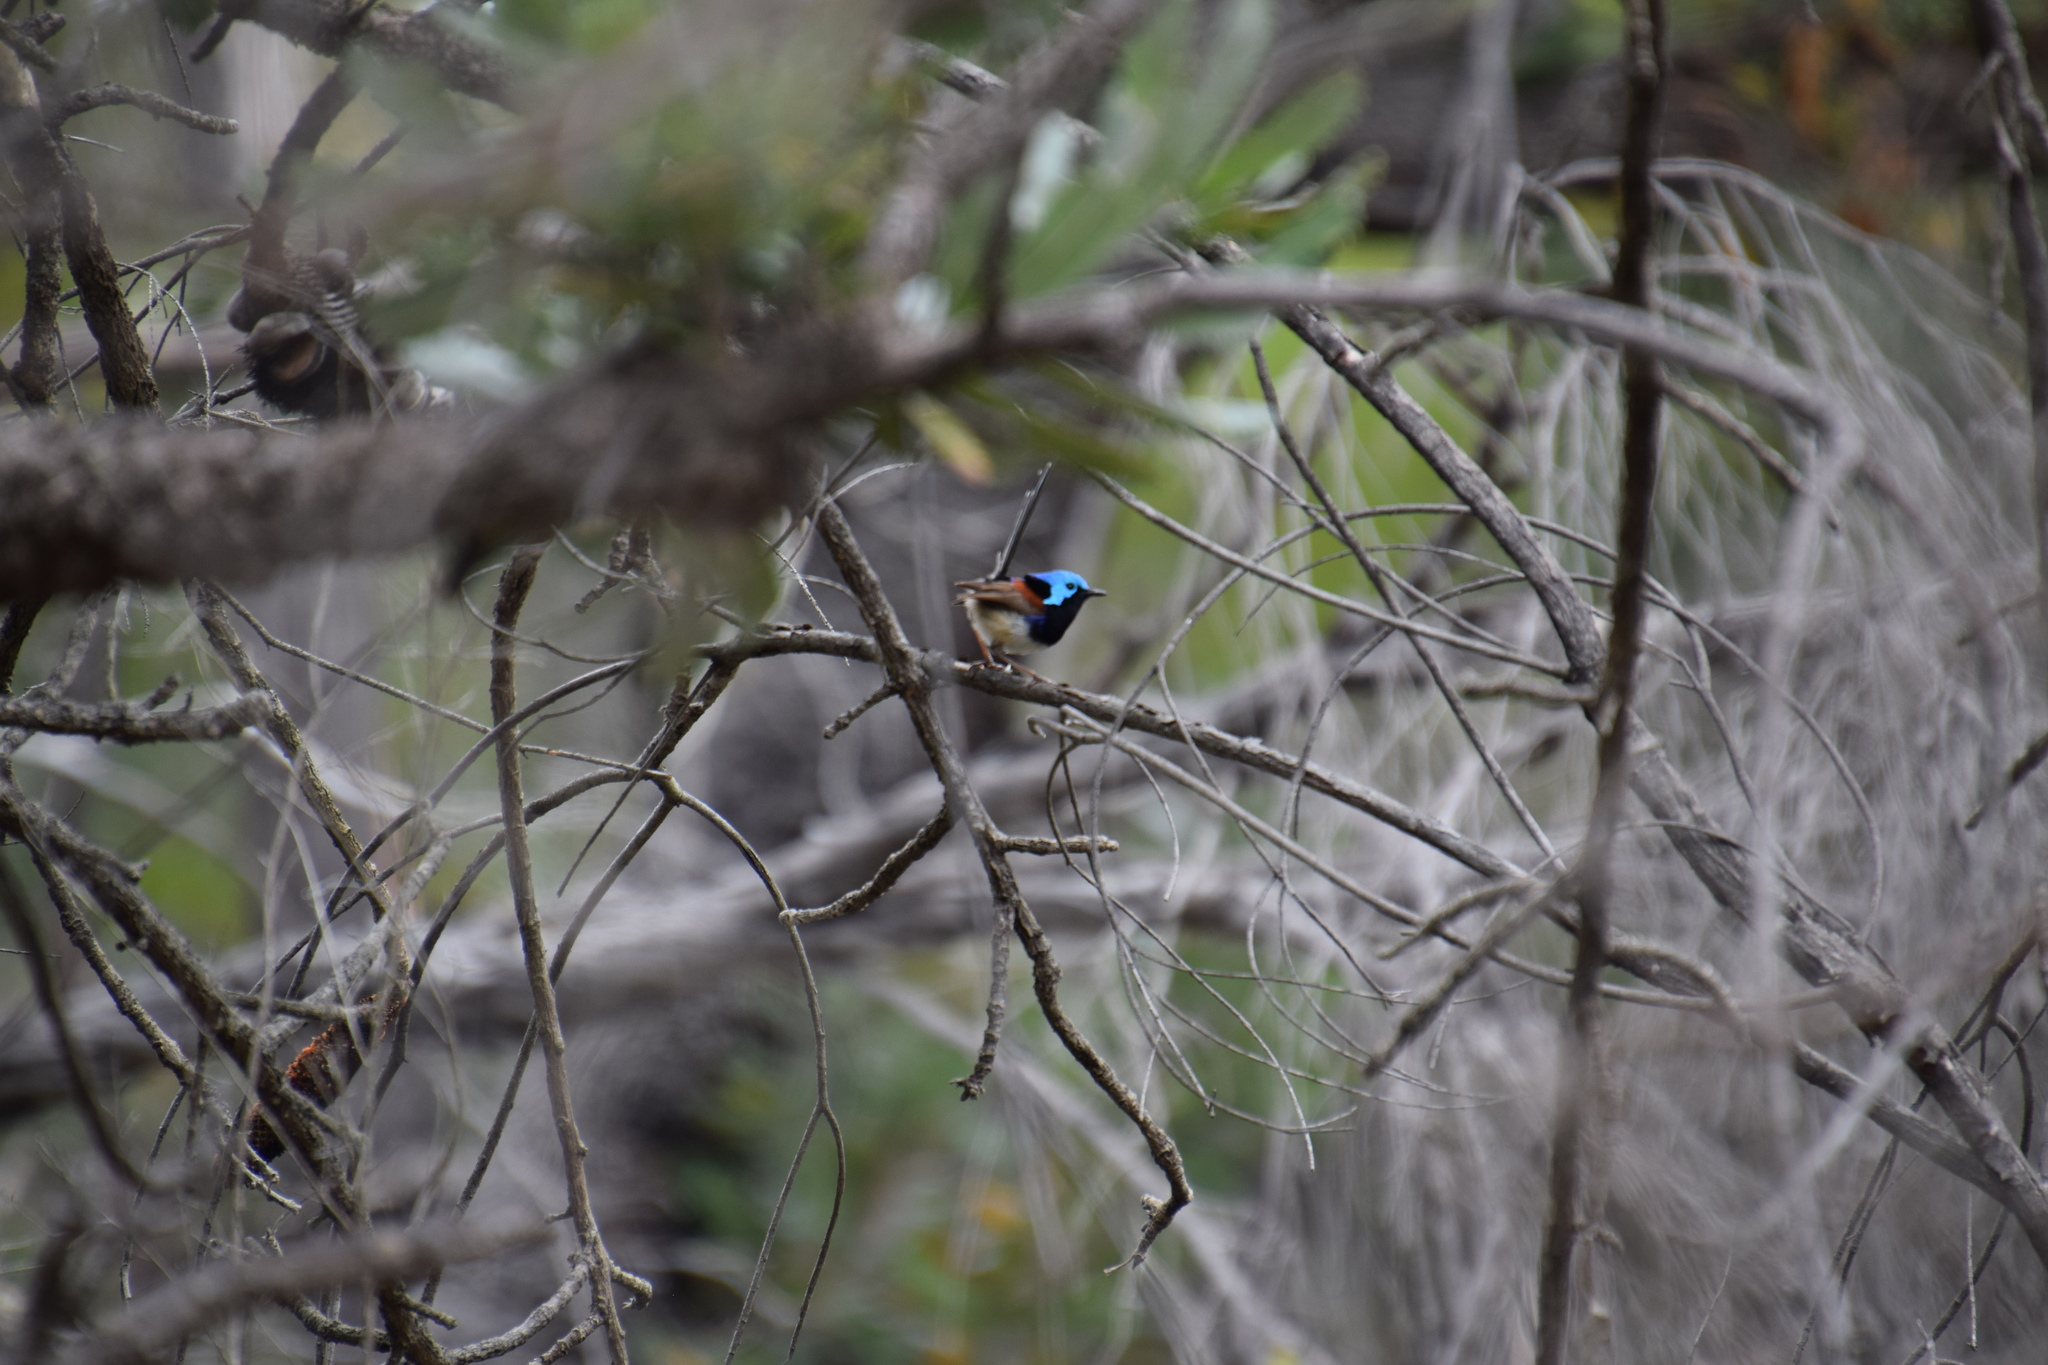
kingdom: Animalia
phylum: Chordata
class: Aves
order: Passeriformes
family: Maluridae
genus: Malurus
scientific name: Malurus lamberti
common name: Variegated fairywren
